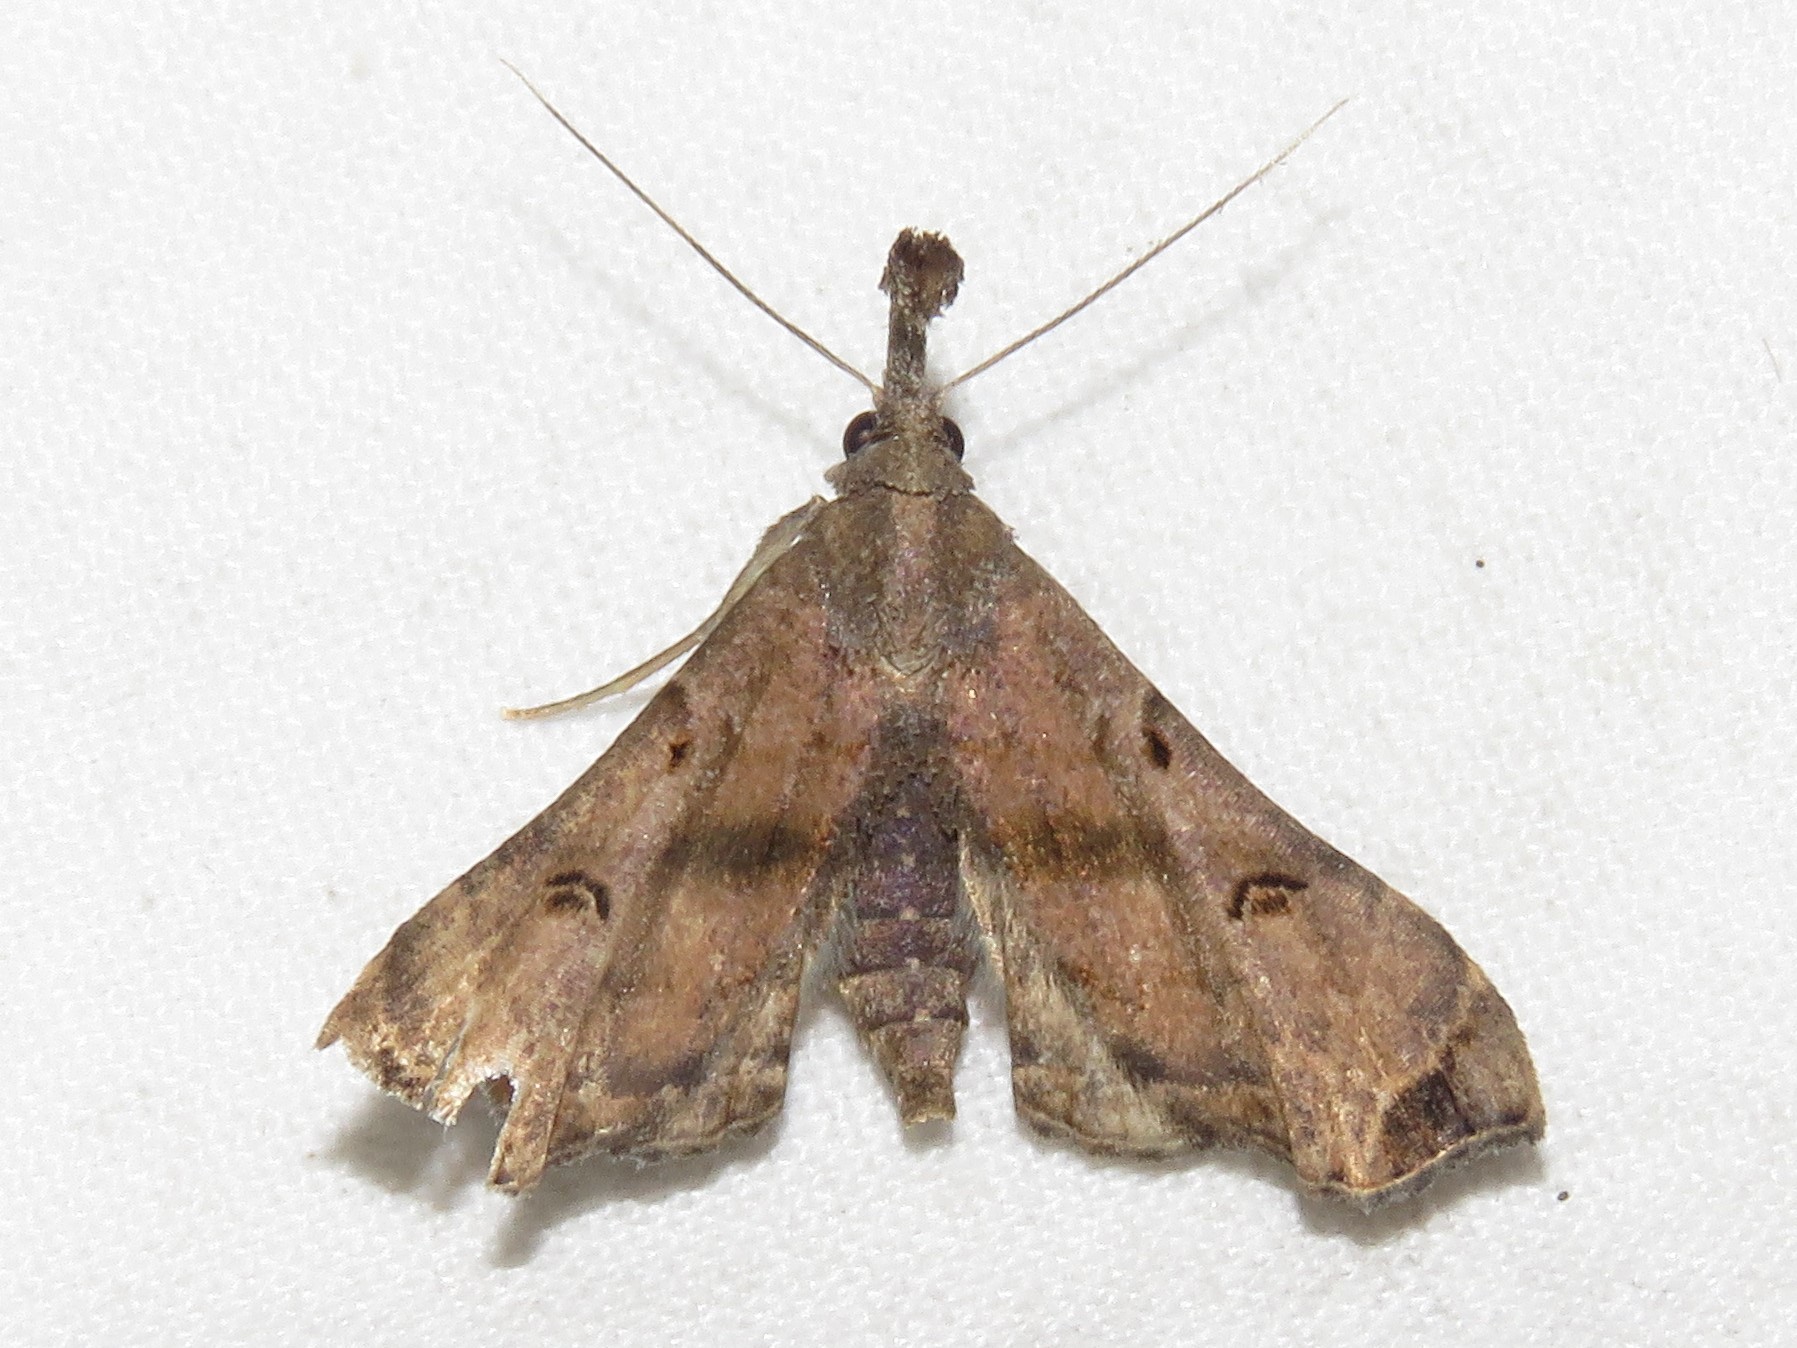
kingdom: Animalia
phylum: Arthropoda
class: Insecta
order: Lepidoptera
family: Erebidae
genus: Palthis
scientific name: Palthis asopialis
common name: Faint-spotted palthis moth
